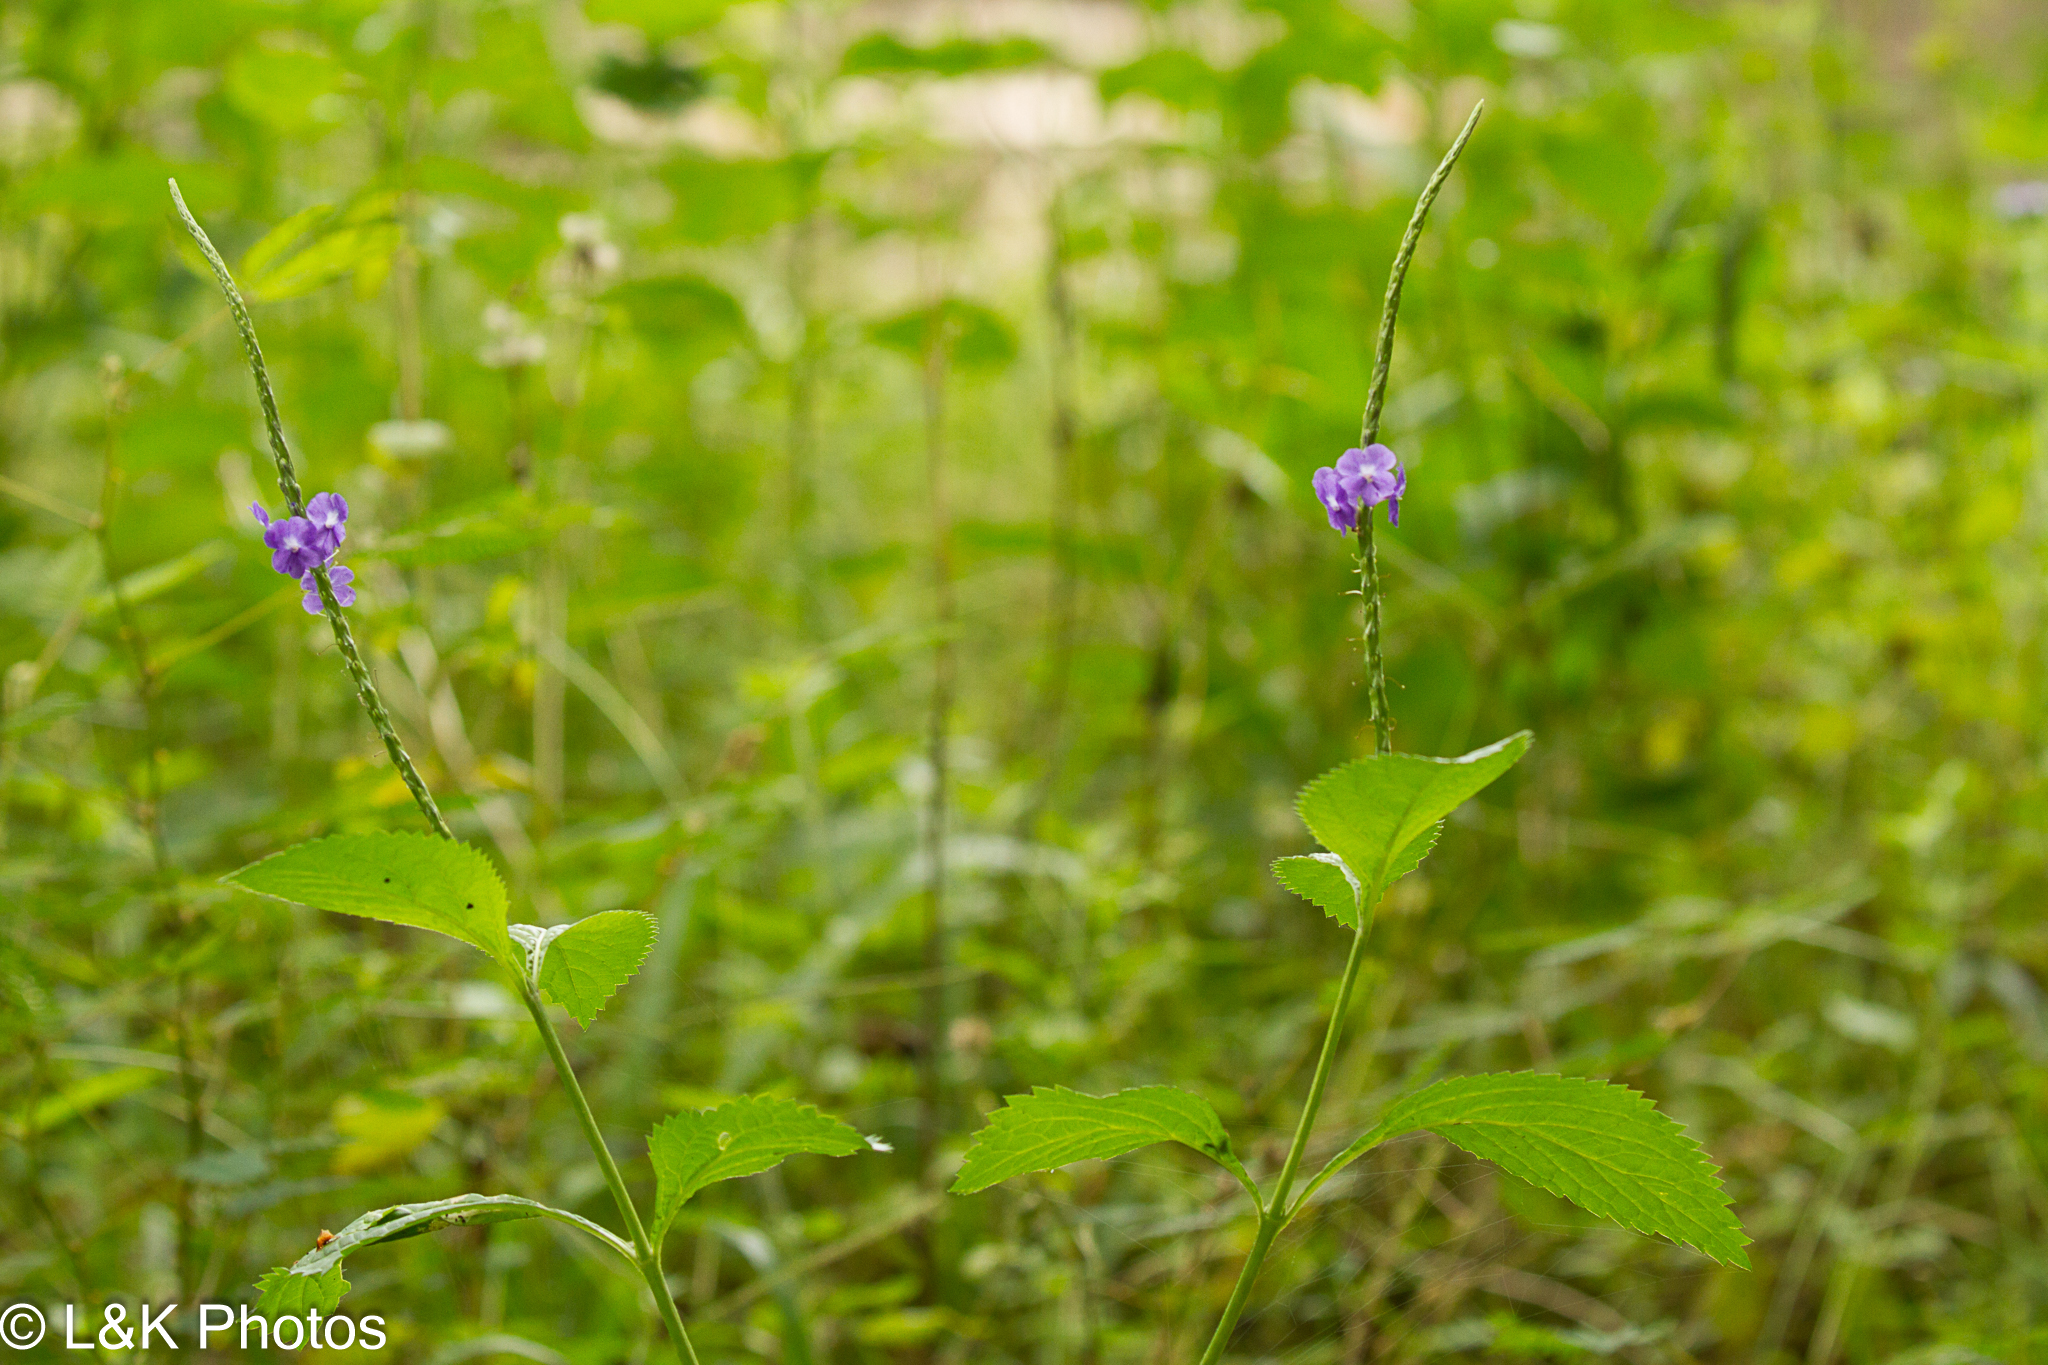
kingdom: Plantae
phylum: Tracheophyta
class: Magnoliopsida
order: Lamiales
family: Verbenaceae
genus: Stachytarpheta
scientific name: Stachytarpheta cayennensis
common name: Cayenne porterweed
